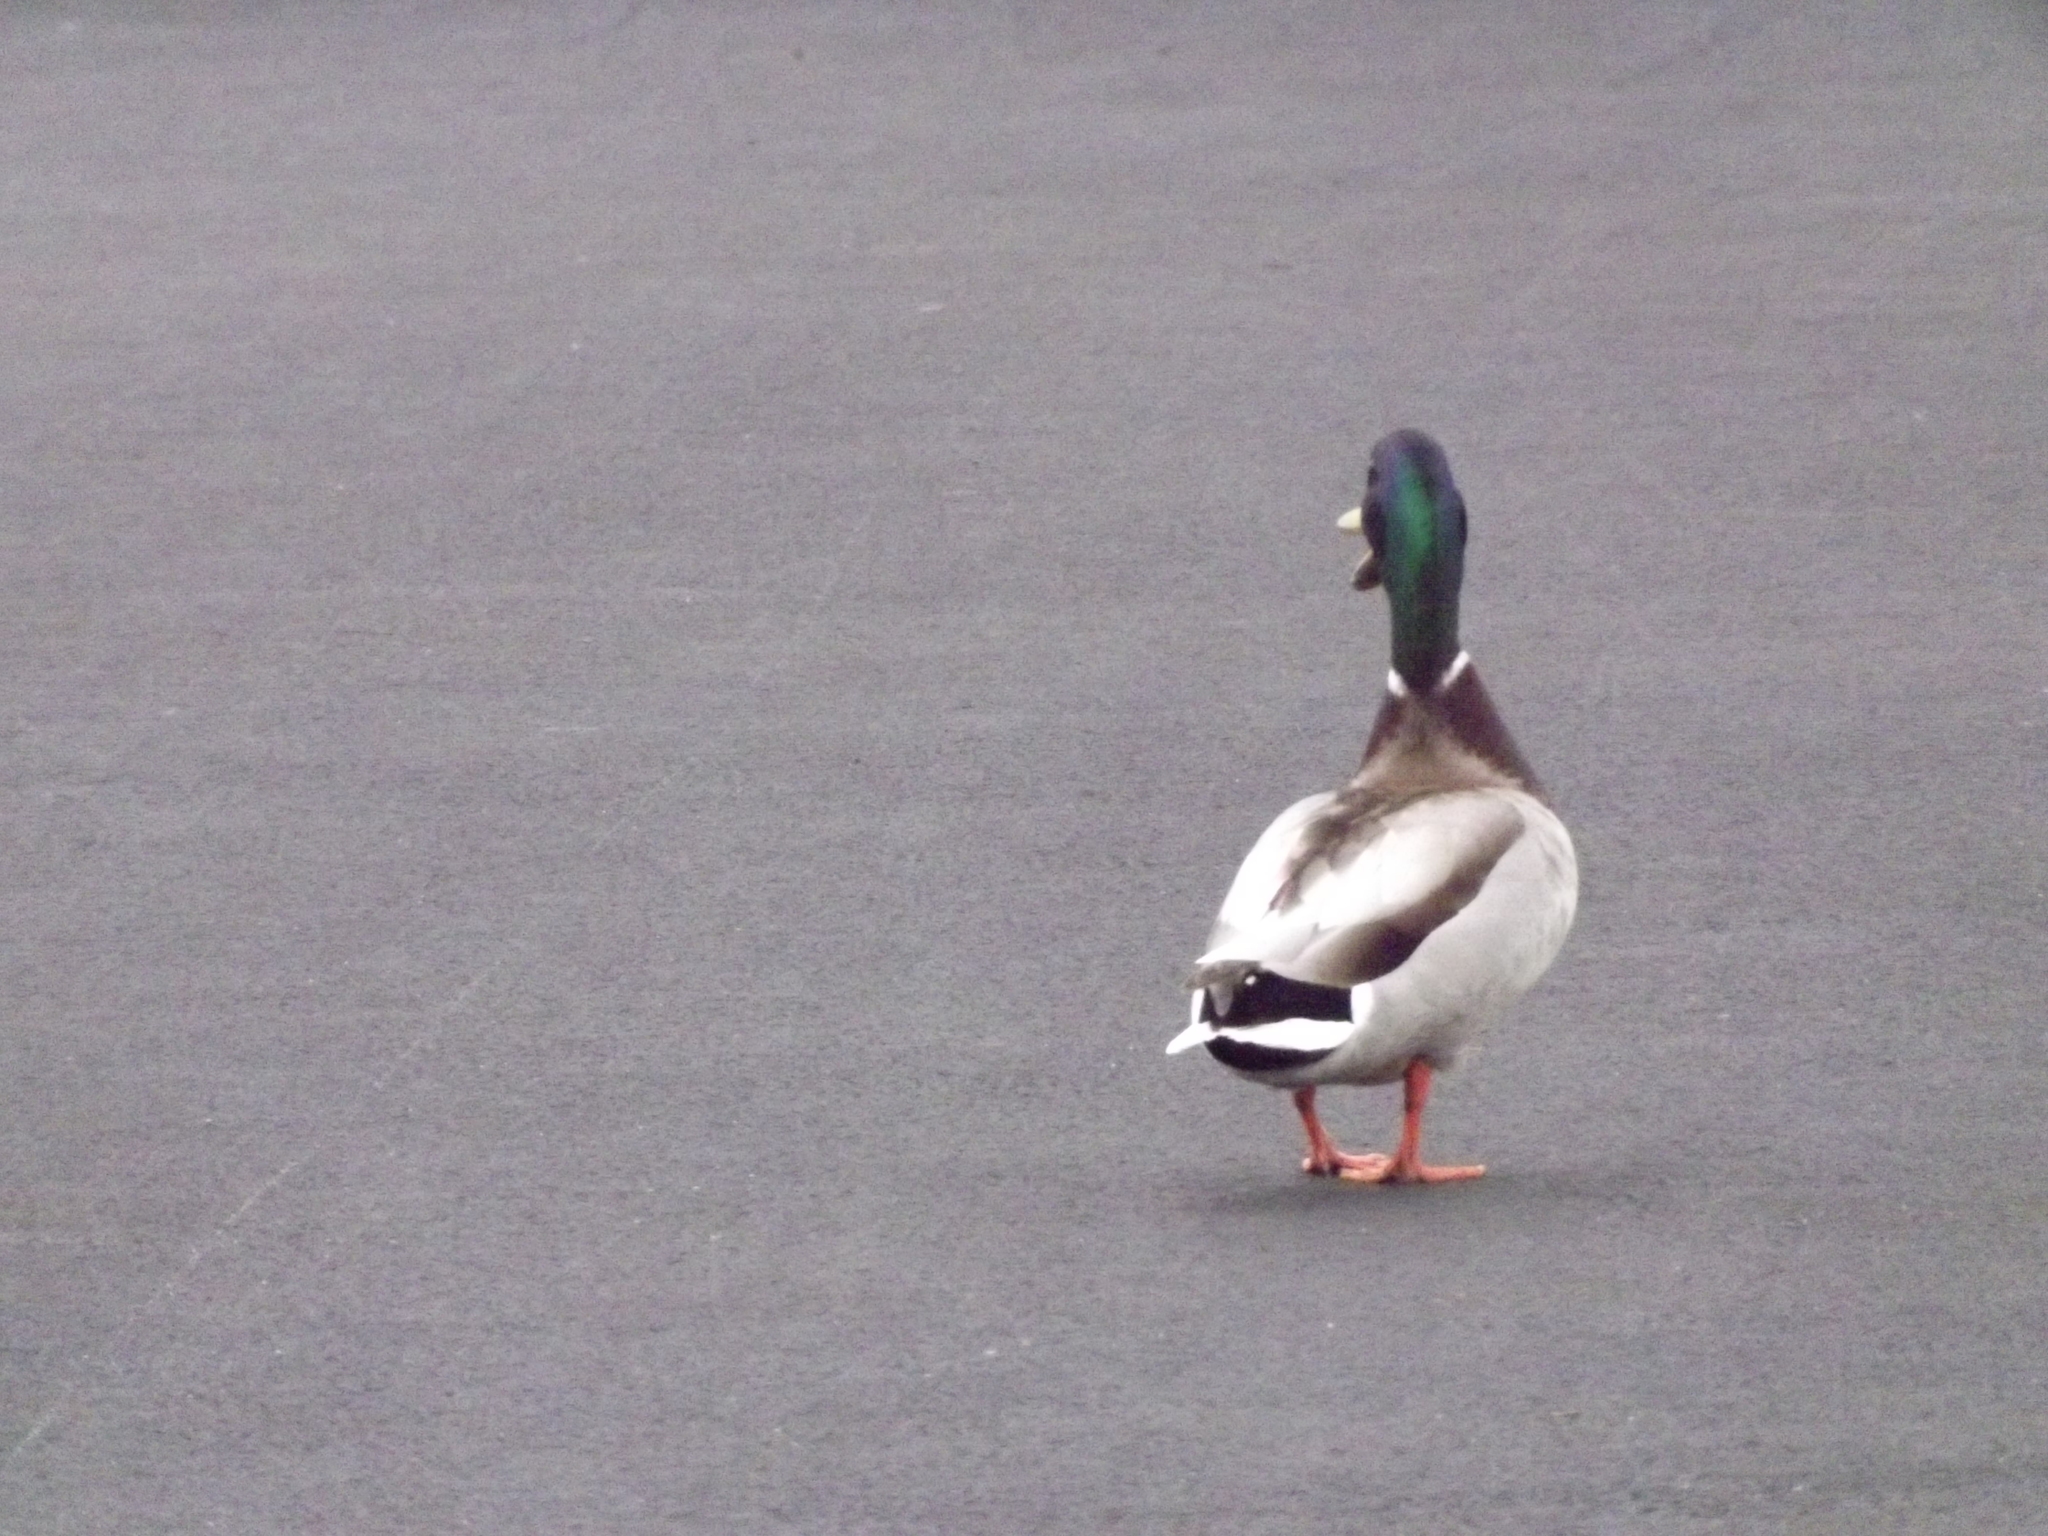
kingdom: Animalia
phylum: Chordata
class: Aves
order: Anseriformes
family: Anatidae
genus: Anas
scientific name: Anas platyrhynchos
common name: Mallard
